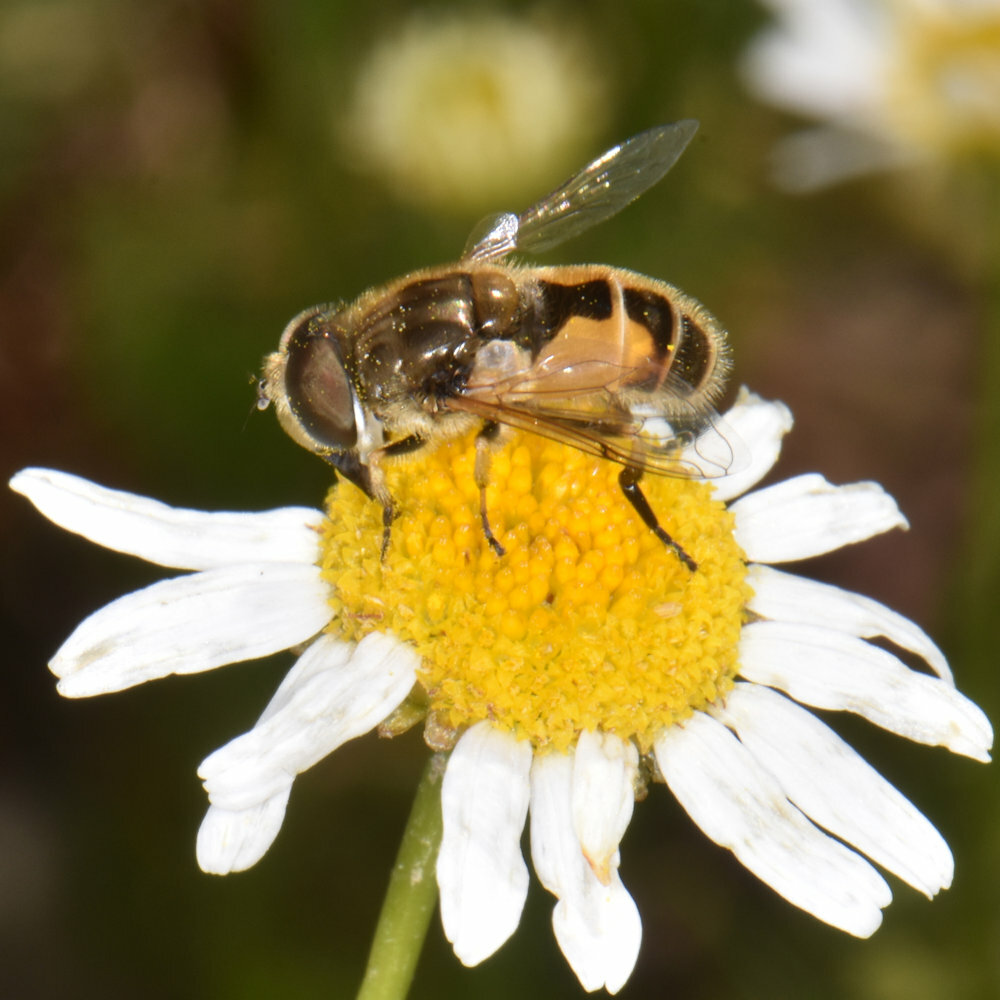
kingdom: Animalia
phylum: Arthropoda
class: Insecta
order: Diptera
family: Syrphidae
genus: Eristalis
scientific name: Eristalis arbustorum
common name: Hover fly
